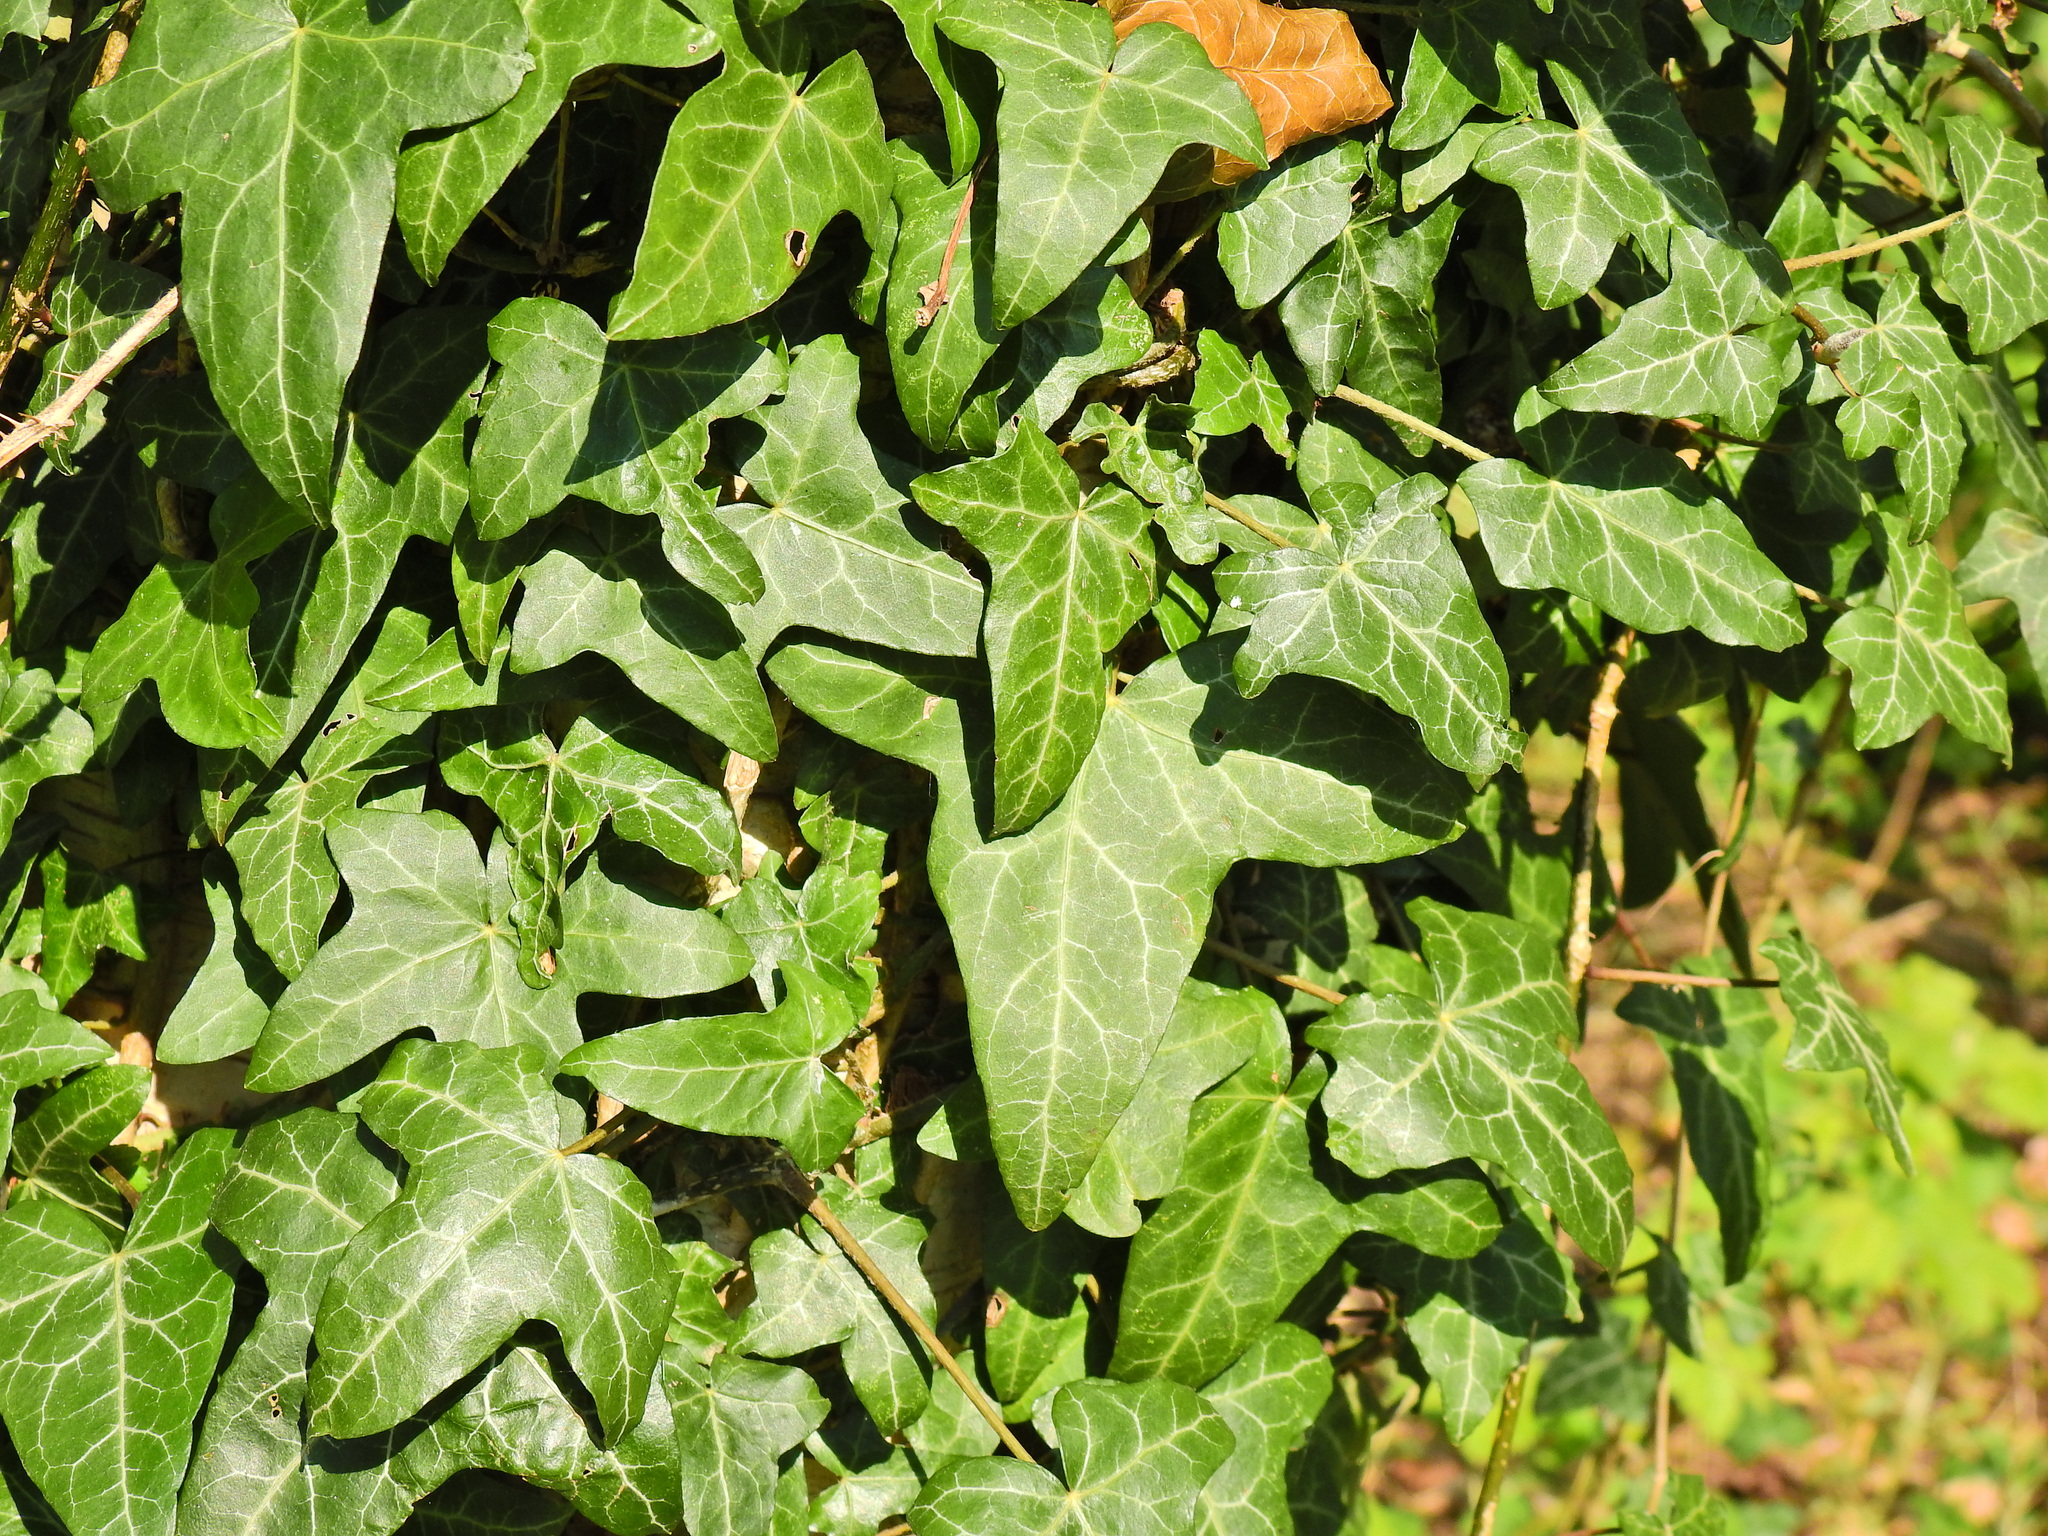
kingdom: Plantae
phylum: Tracheophyta
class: Magnoliopsida
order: Apiales
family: Araliaceae
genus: Hedera
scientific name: Hedera helix
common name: Ivy
